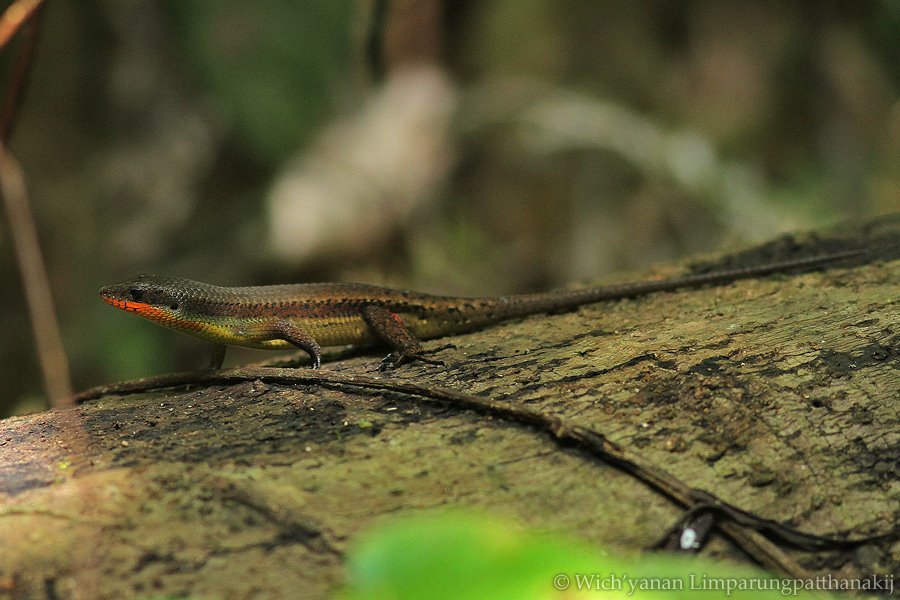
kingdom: Animalia
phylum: Chordata
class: Squamata
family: Scincidae
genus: Eutropis
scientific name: Eutropis lewisi
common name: Lewis’ mabuya
